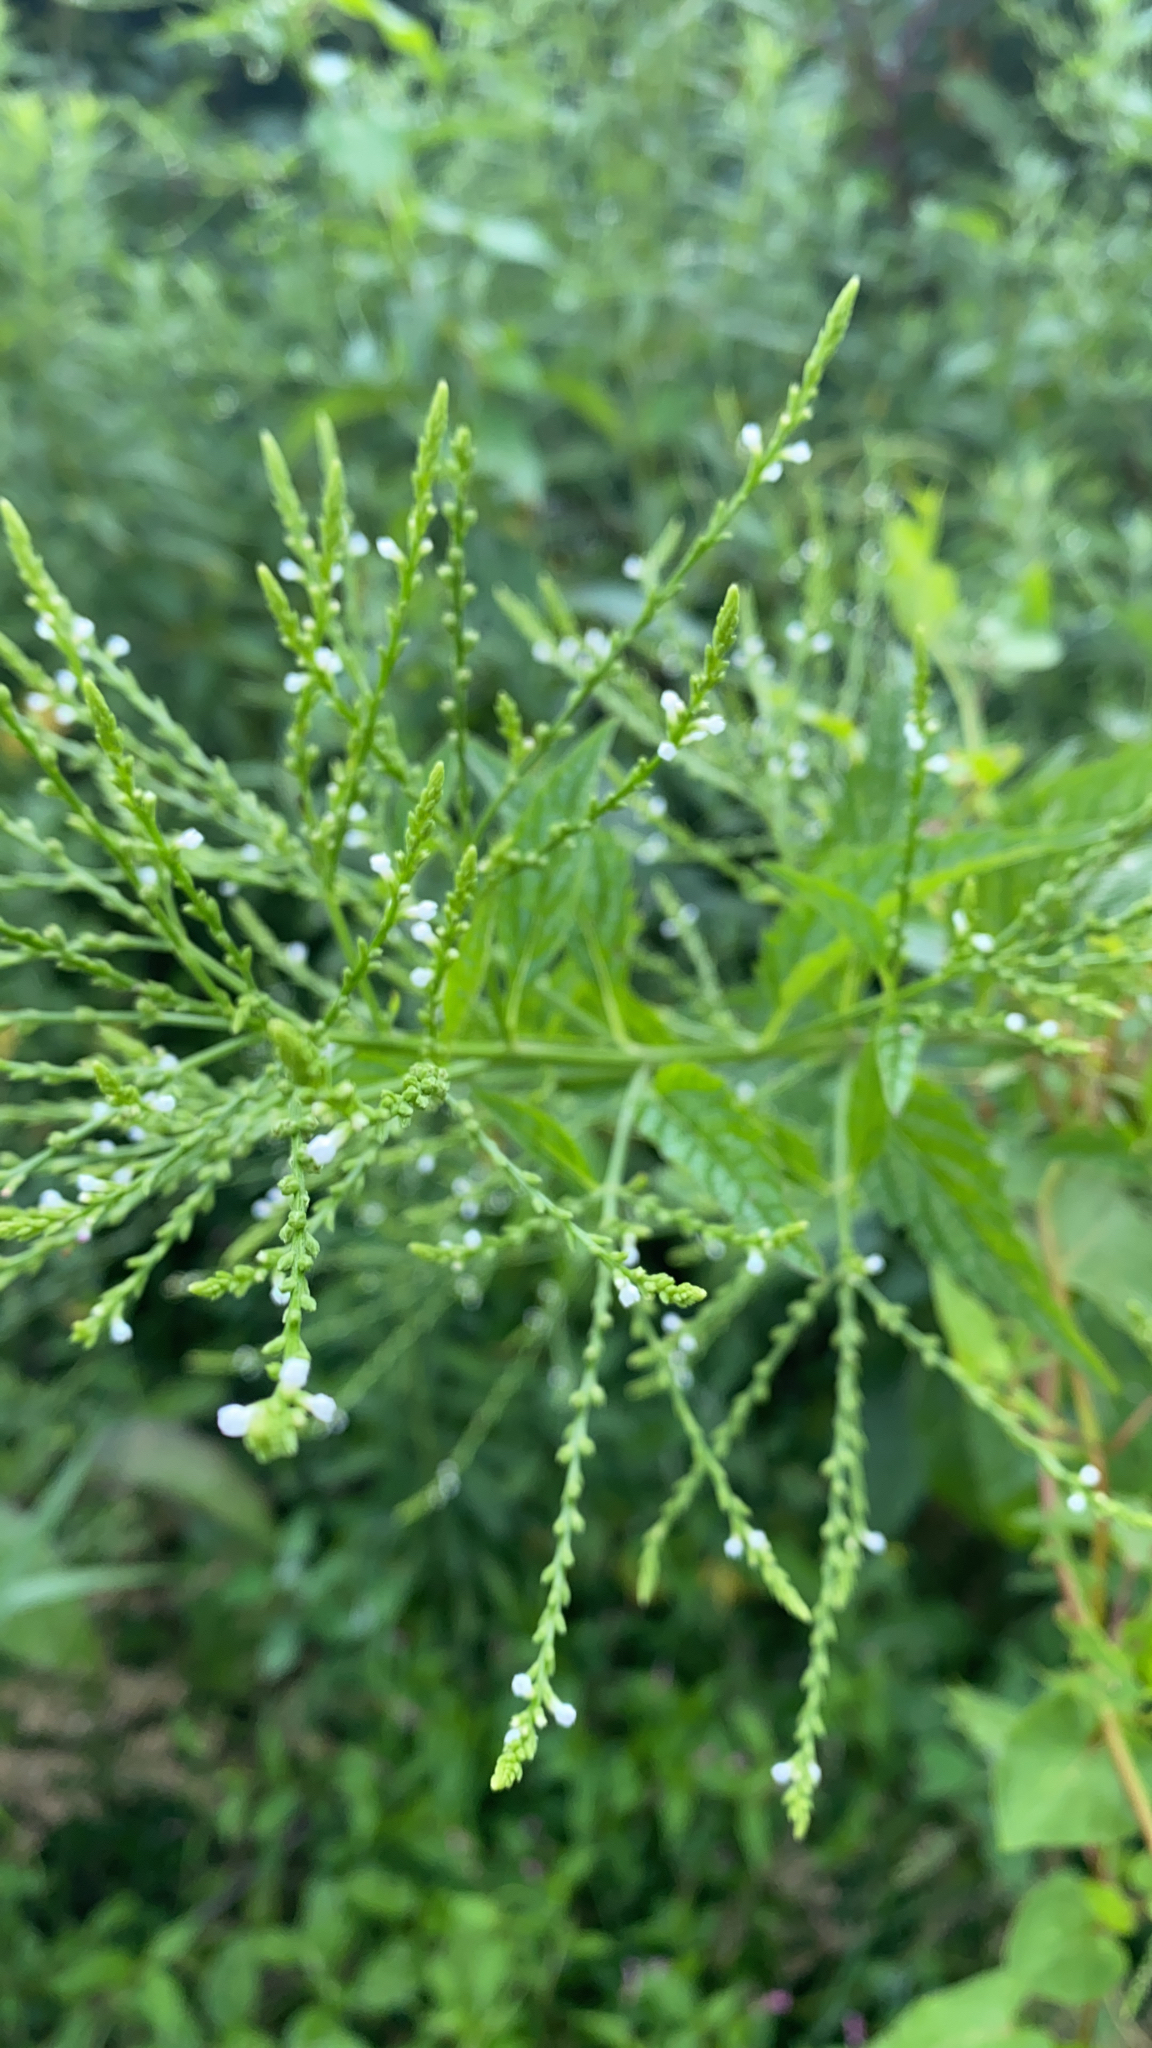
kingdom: Plantae
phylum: Tracheophyta
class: Magnoliopsida
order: Lamiales
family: Verbenaceae
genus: Verbena
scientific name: Verbena urticifolia
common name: Nettle-leaved vervain
